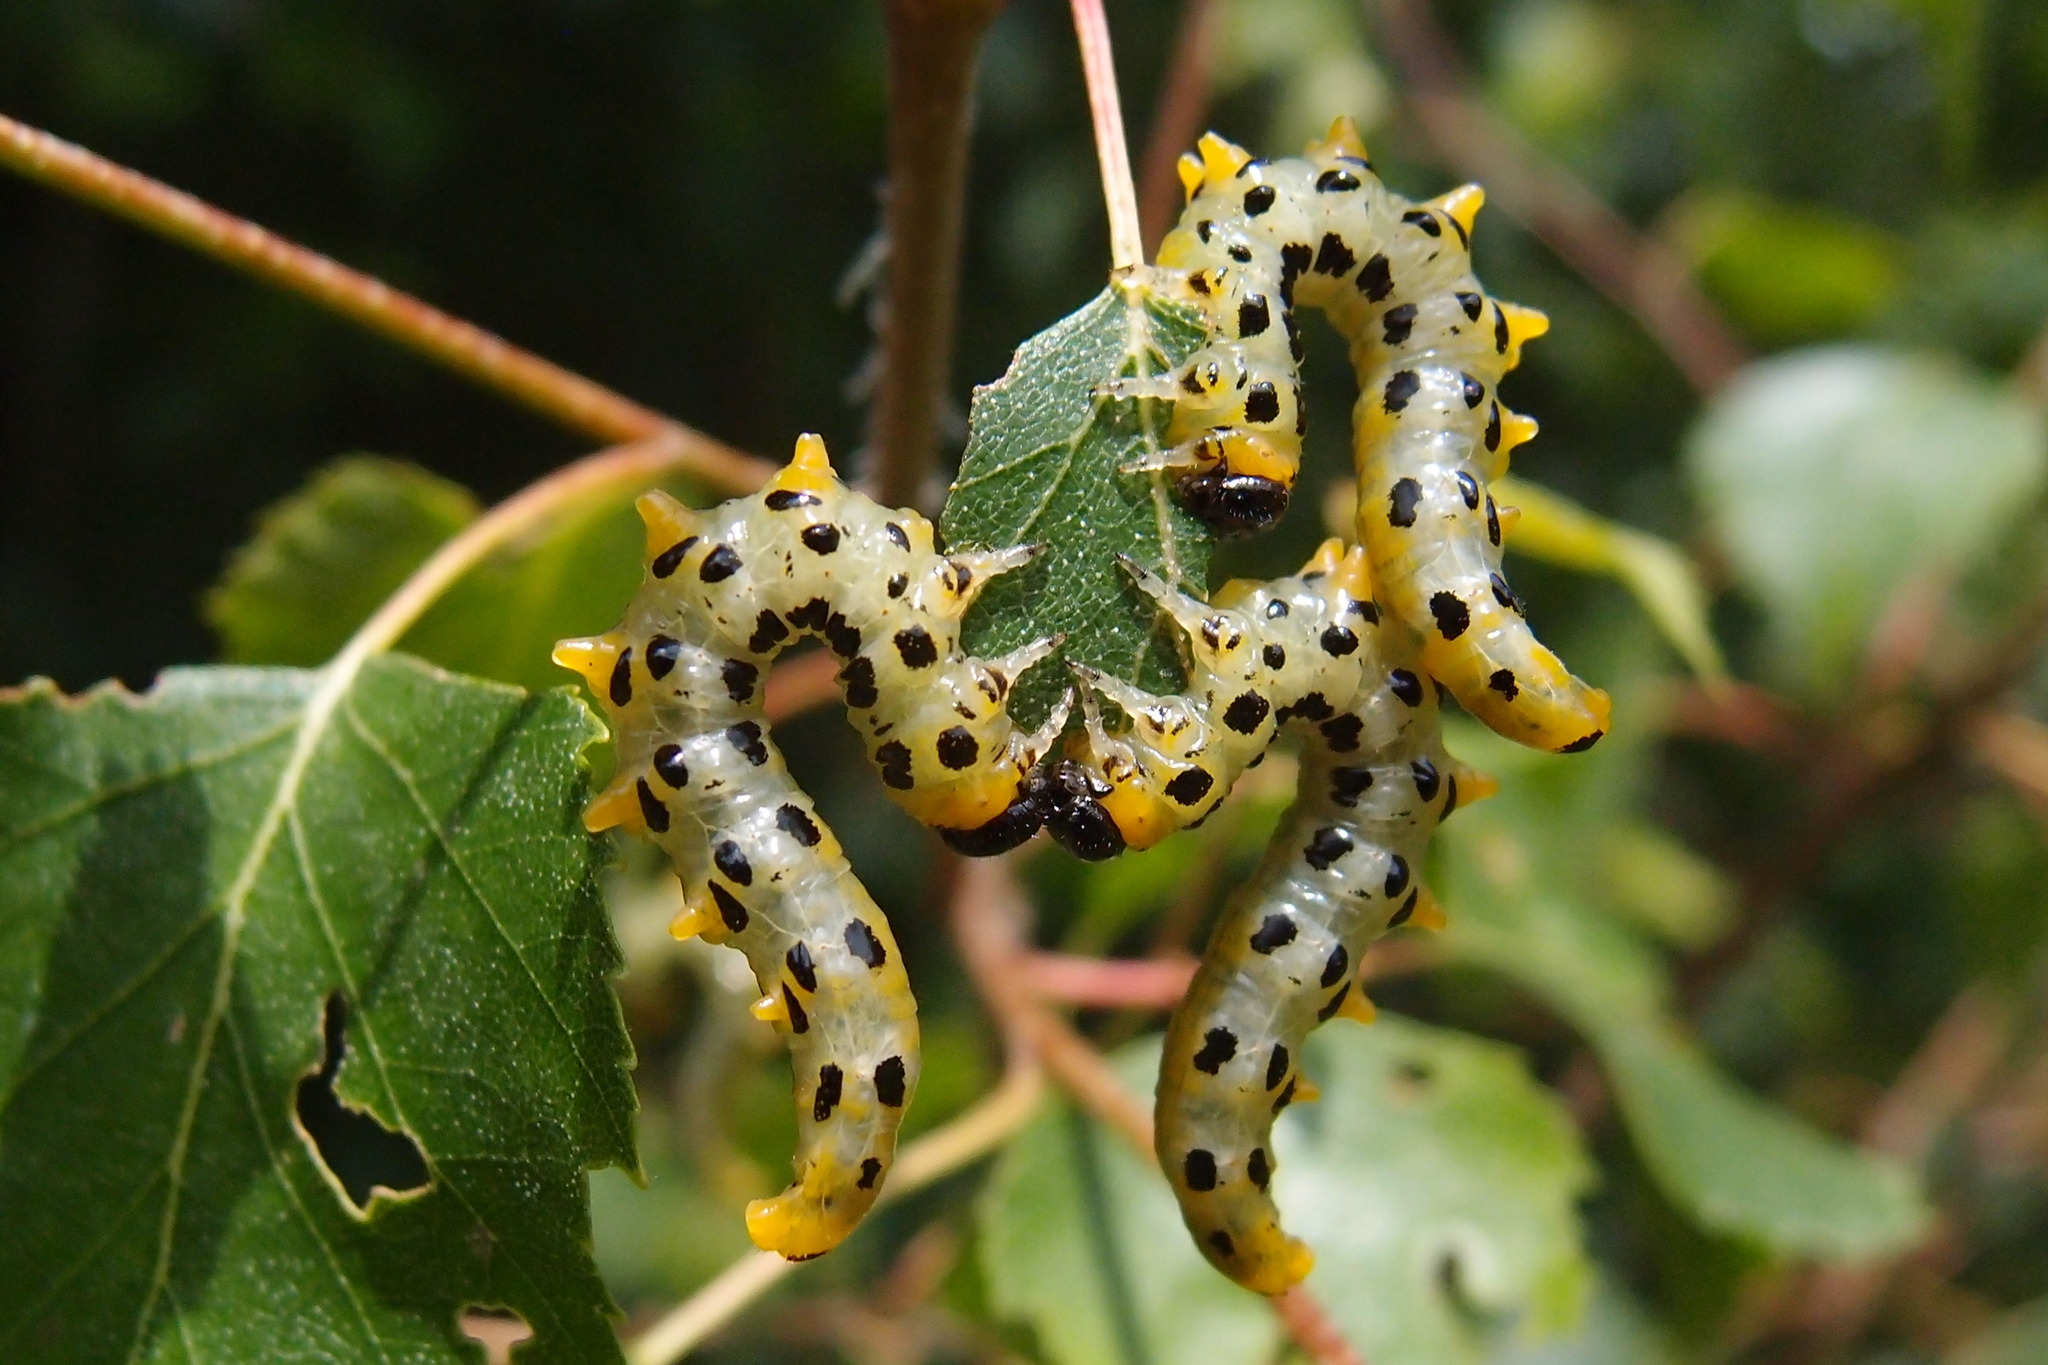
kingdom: Animalia
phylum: Arthropoda
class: Insecta
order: Hymenoptera
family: Tenthredinidae
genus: Craesus
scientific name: Craesus septentrionalis
